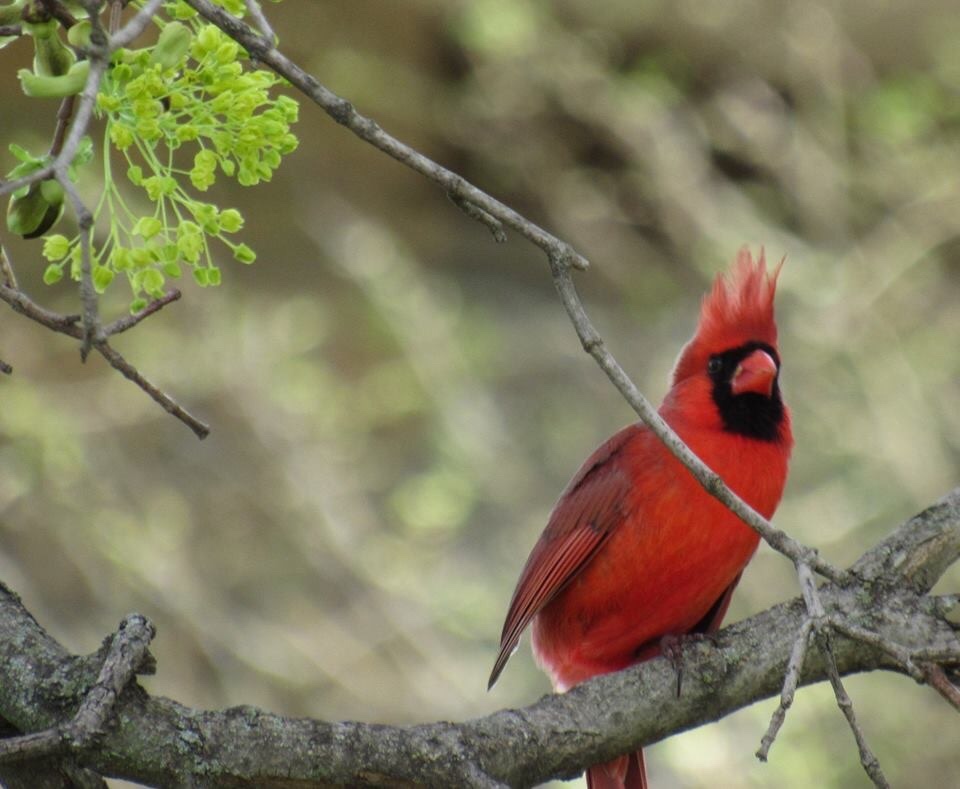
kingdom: Animalia
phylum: Chordata
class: Aves
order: Passeriformes
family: Cardinalidae
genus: Cardinalis
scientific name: Cardinalis cardinalis
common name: Northern cardinal
